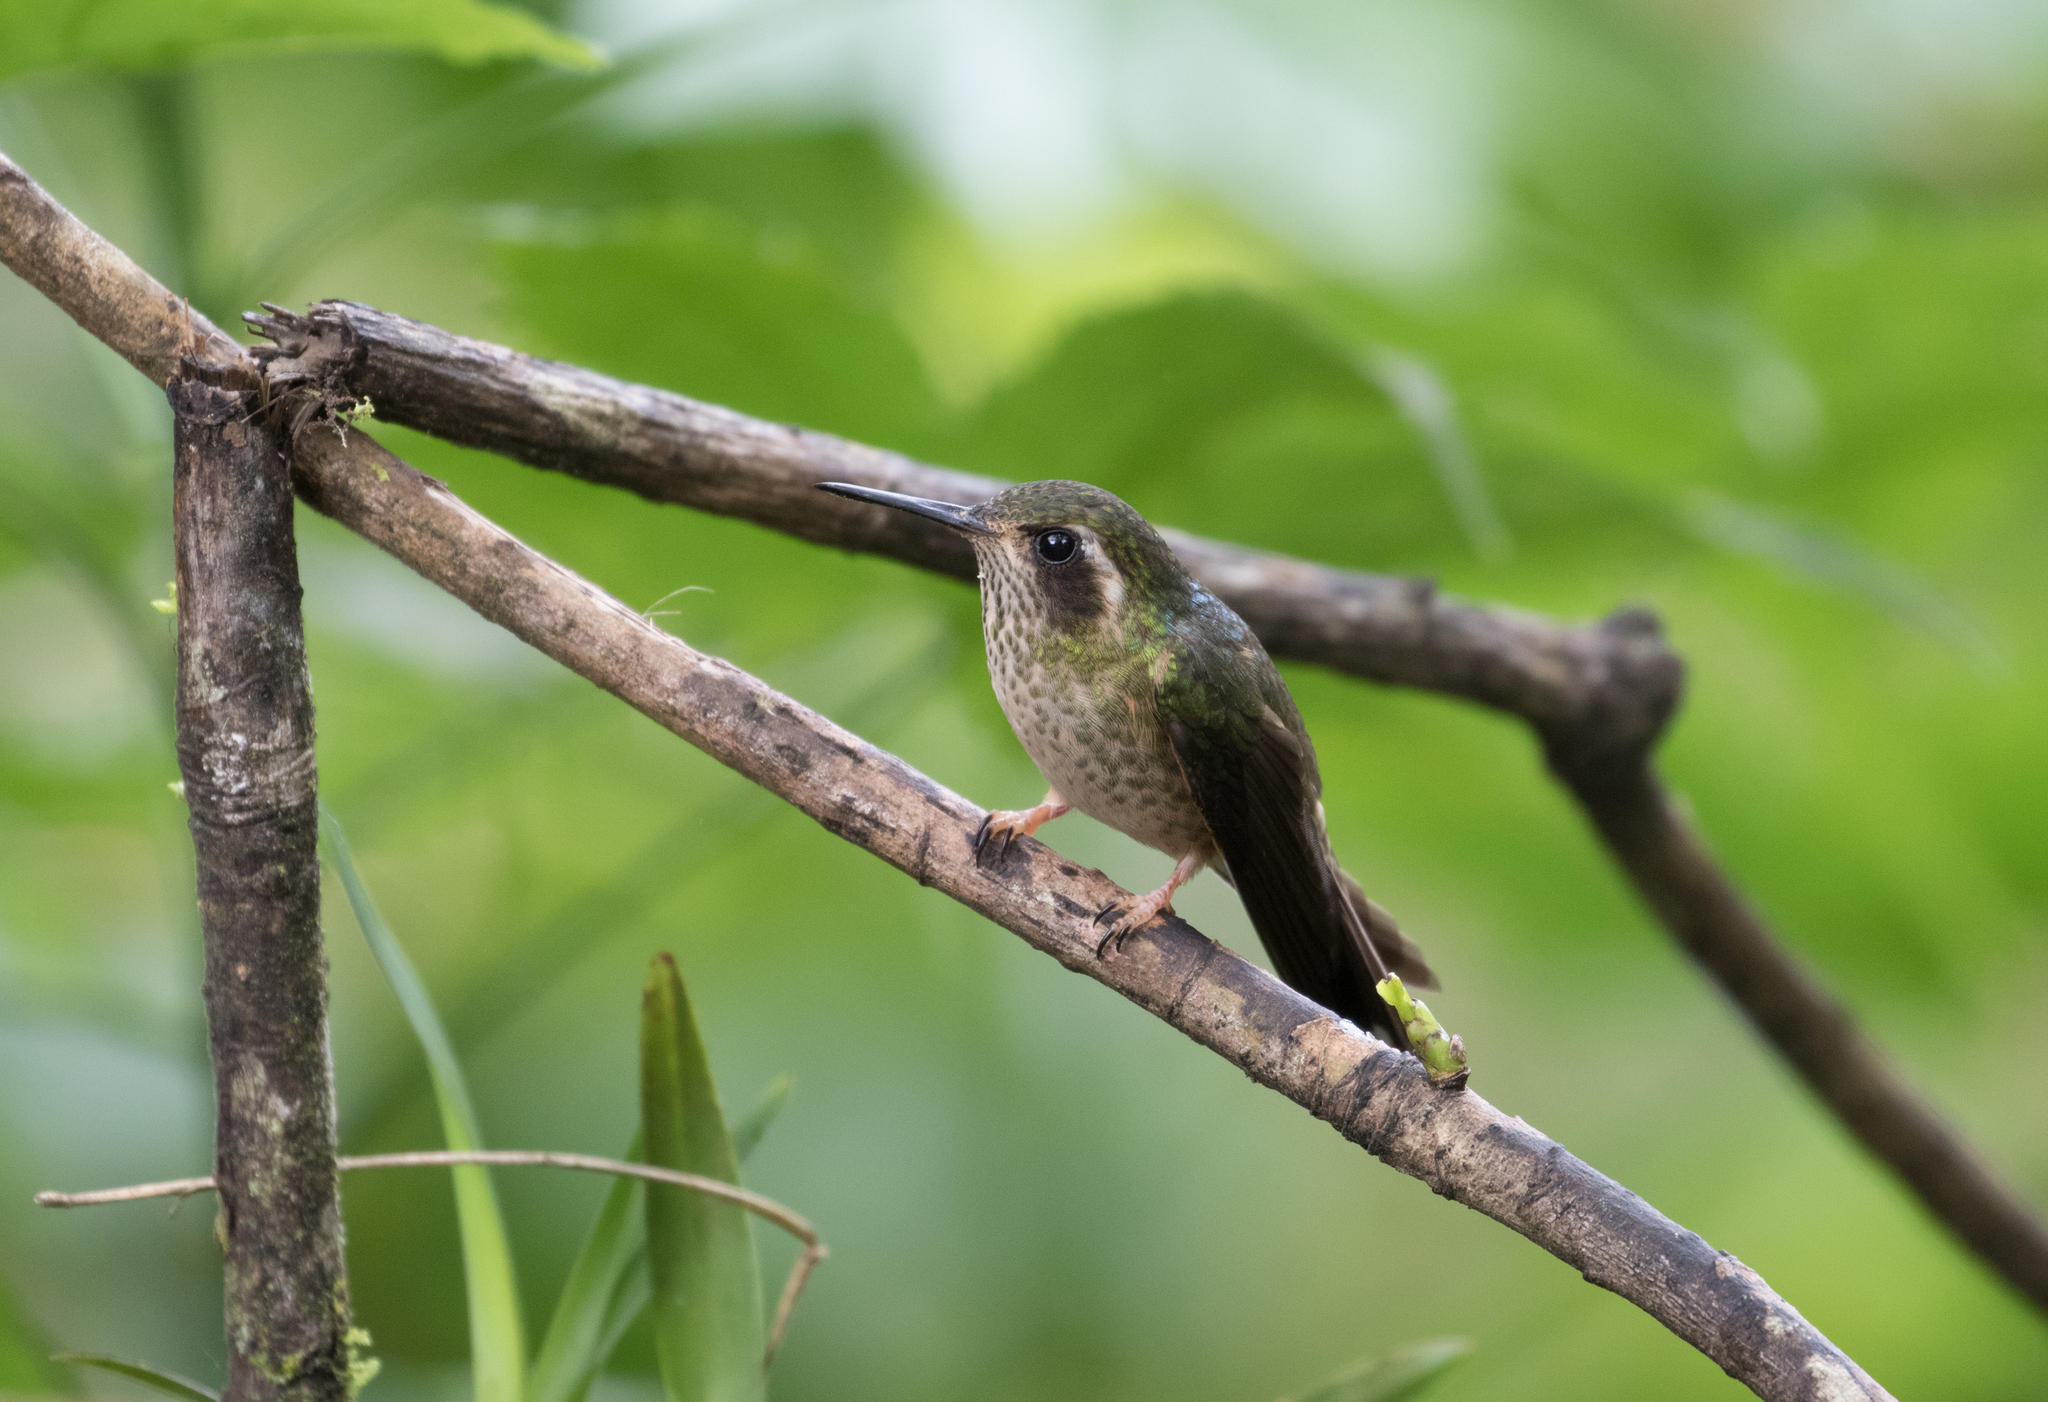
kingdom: Animalia
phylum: Chordata
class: Aves
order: Apodiformes
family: Trochilidae
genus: Adelomyia
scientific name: Adelomyia melanogenys
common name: Speckled hummingbird
